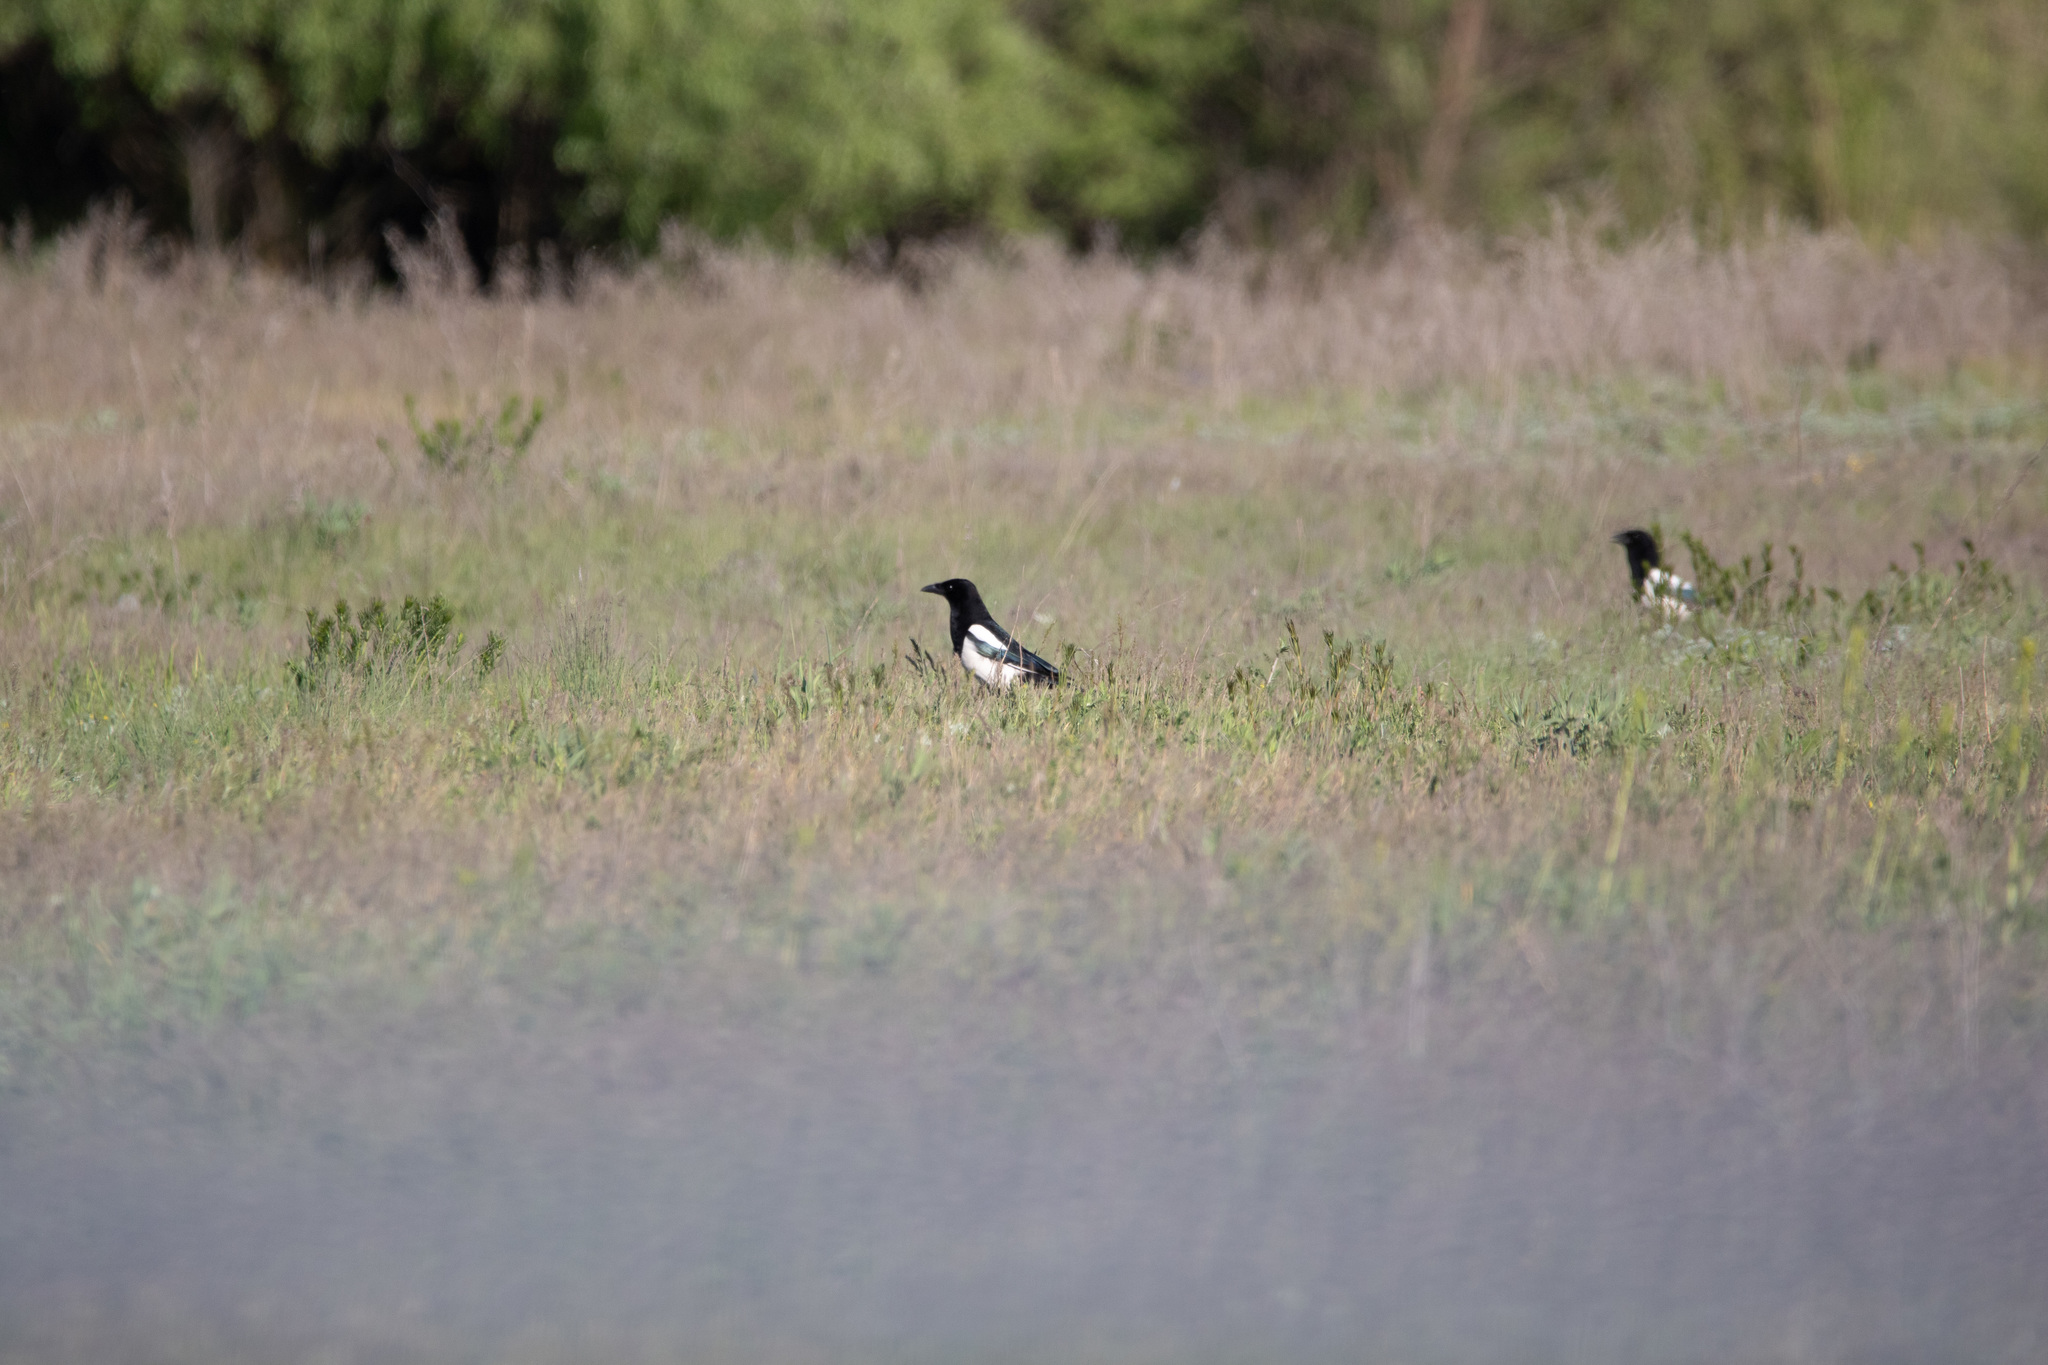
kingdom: Animalia
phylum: Chordata
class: Aves
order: Passeriformes
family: Corvidae
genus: Pica
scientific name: Pica pica
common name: Eurasian magpie
